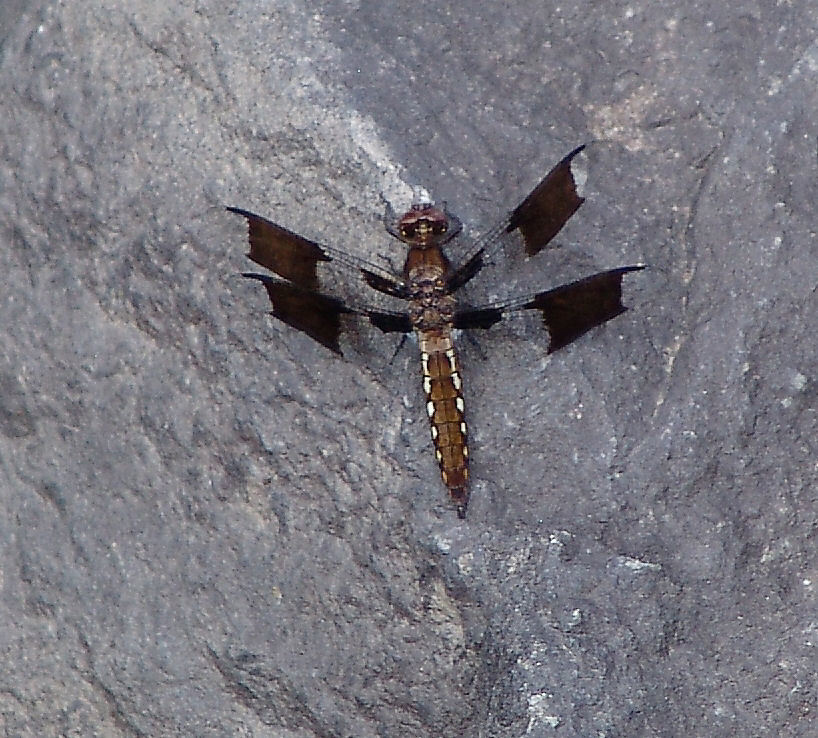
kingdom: Animalia
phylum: Arthropoda
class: Insecta
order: Odonata
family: Libellulidae
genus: Plathemis
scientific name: Plathemis lydia
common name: Common whitetail
